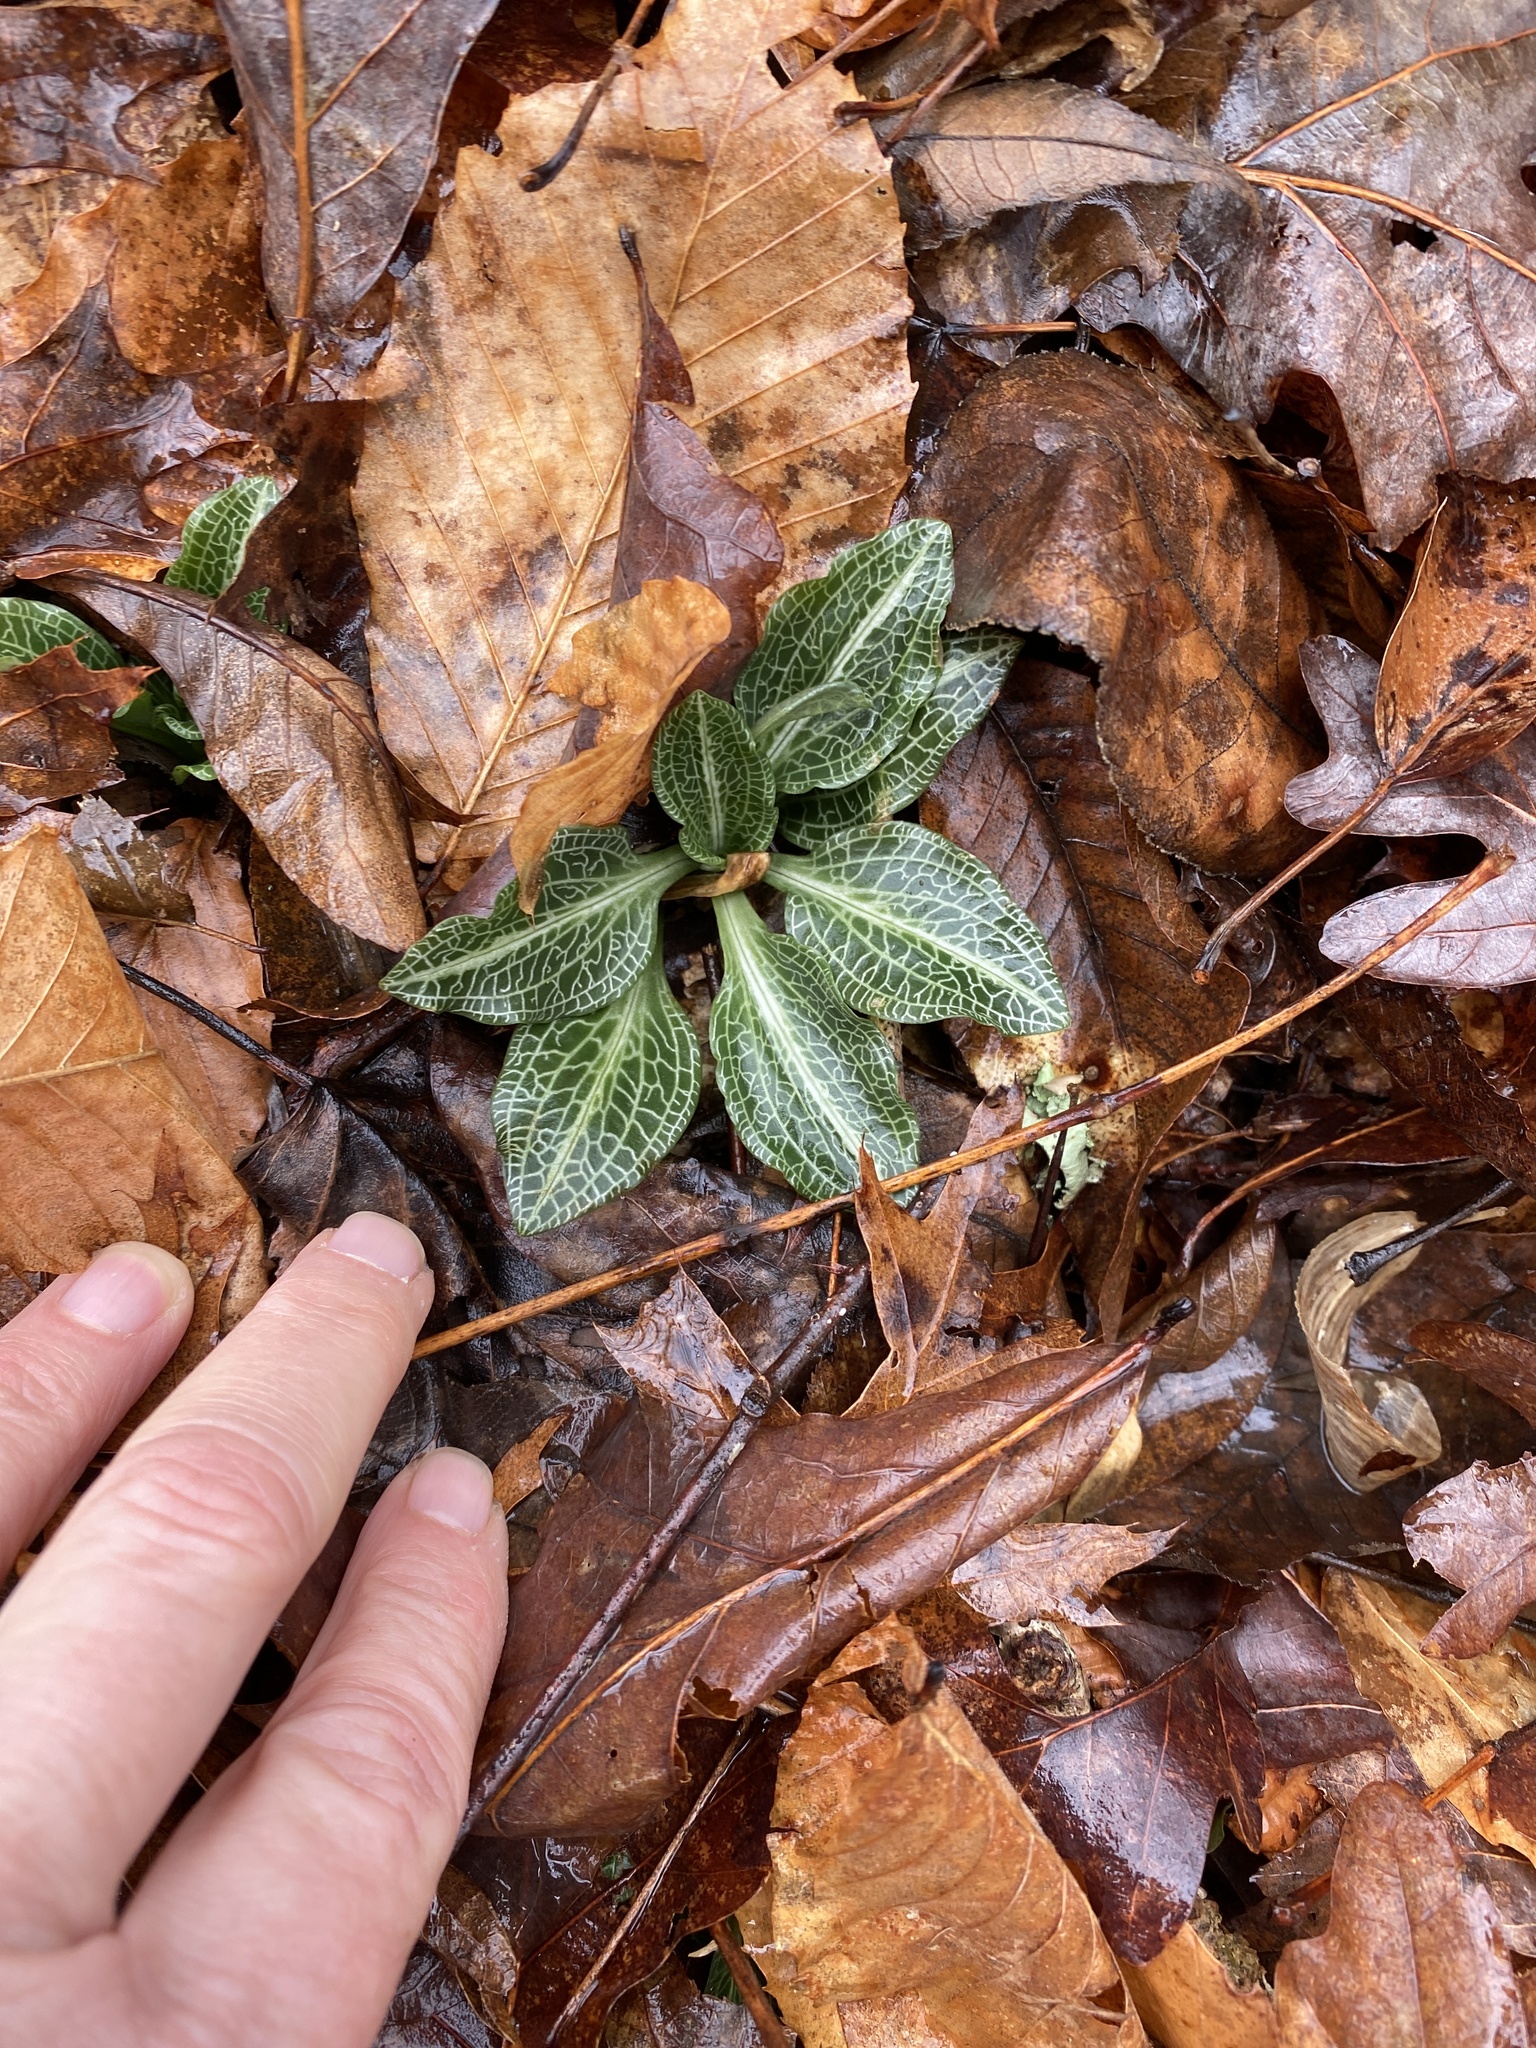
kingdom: Plantae
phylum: Tracheophyta
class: Liliopsida
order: Asparagales
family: Orchidaceae
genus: Goodyera
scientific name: Goodyera pubescens
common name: Downy rattlesnake-plantain
